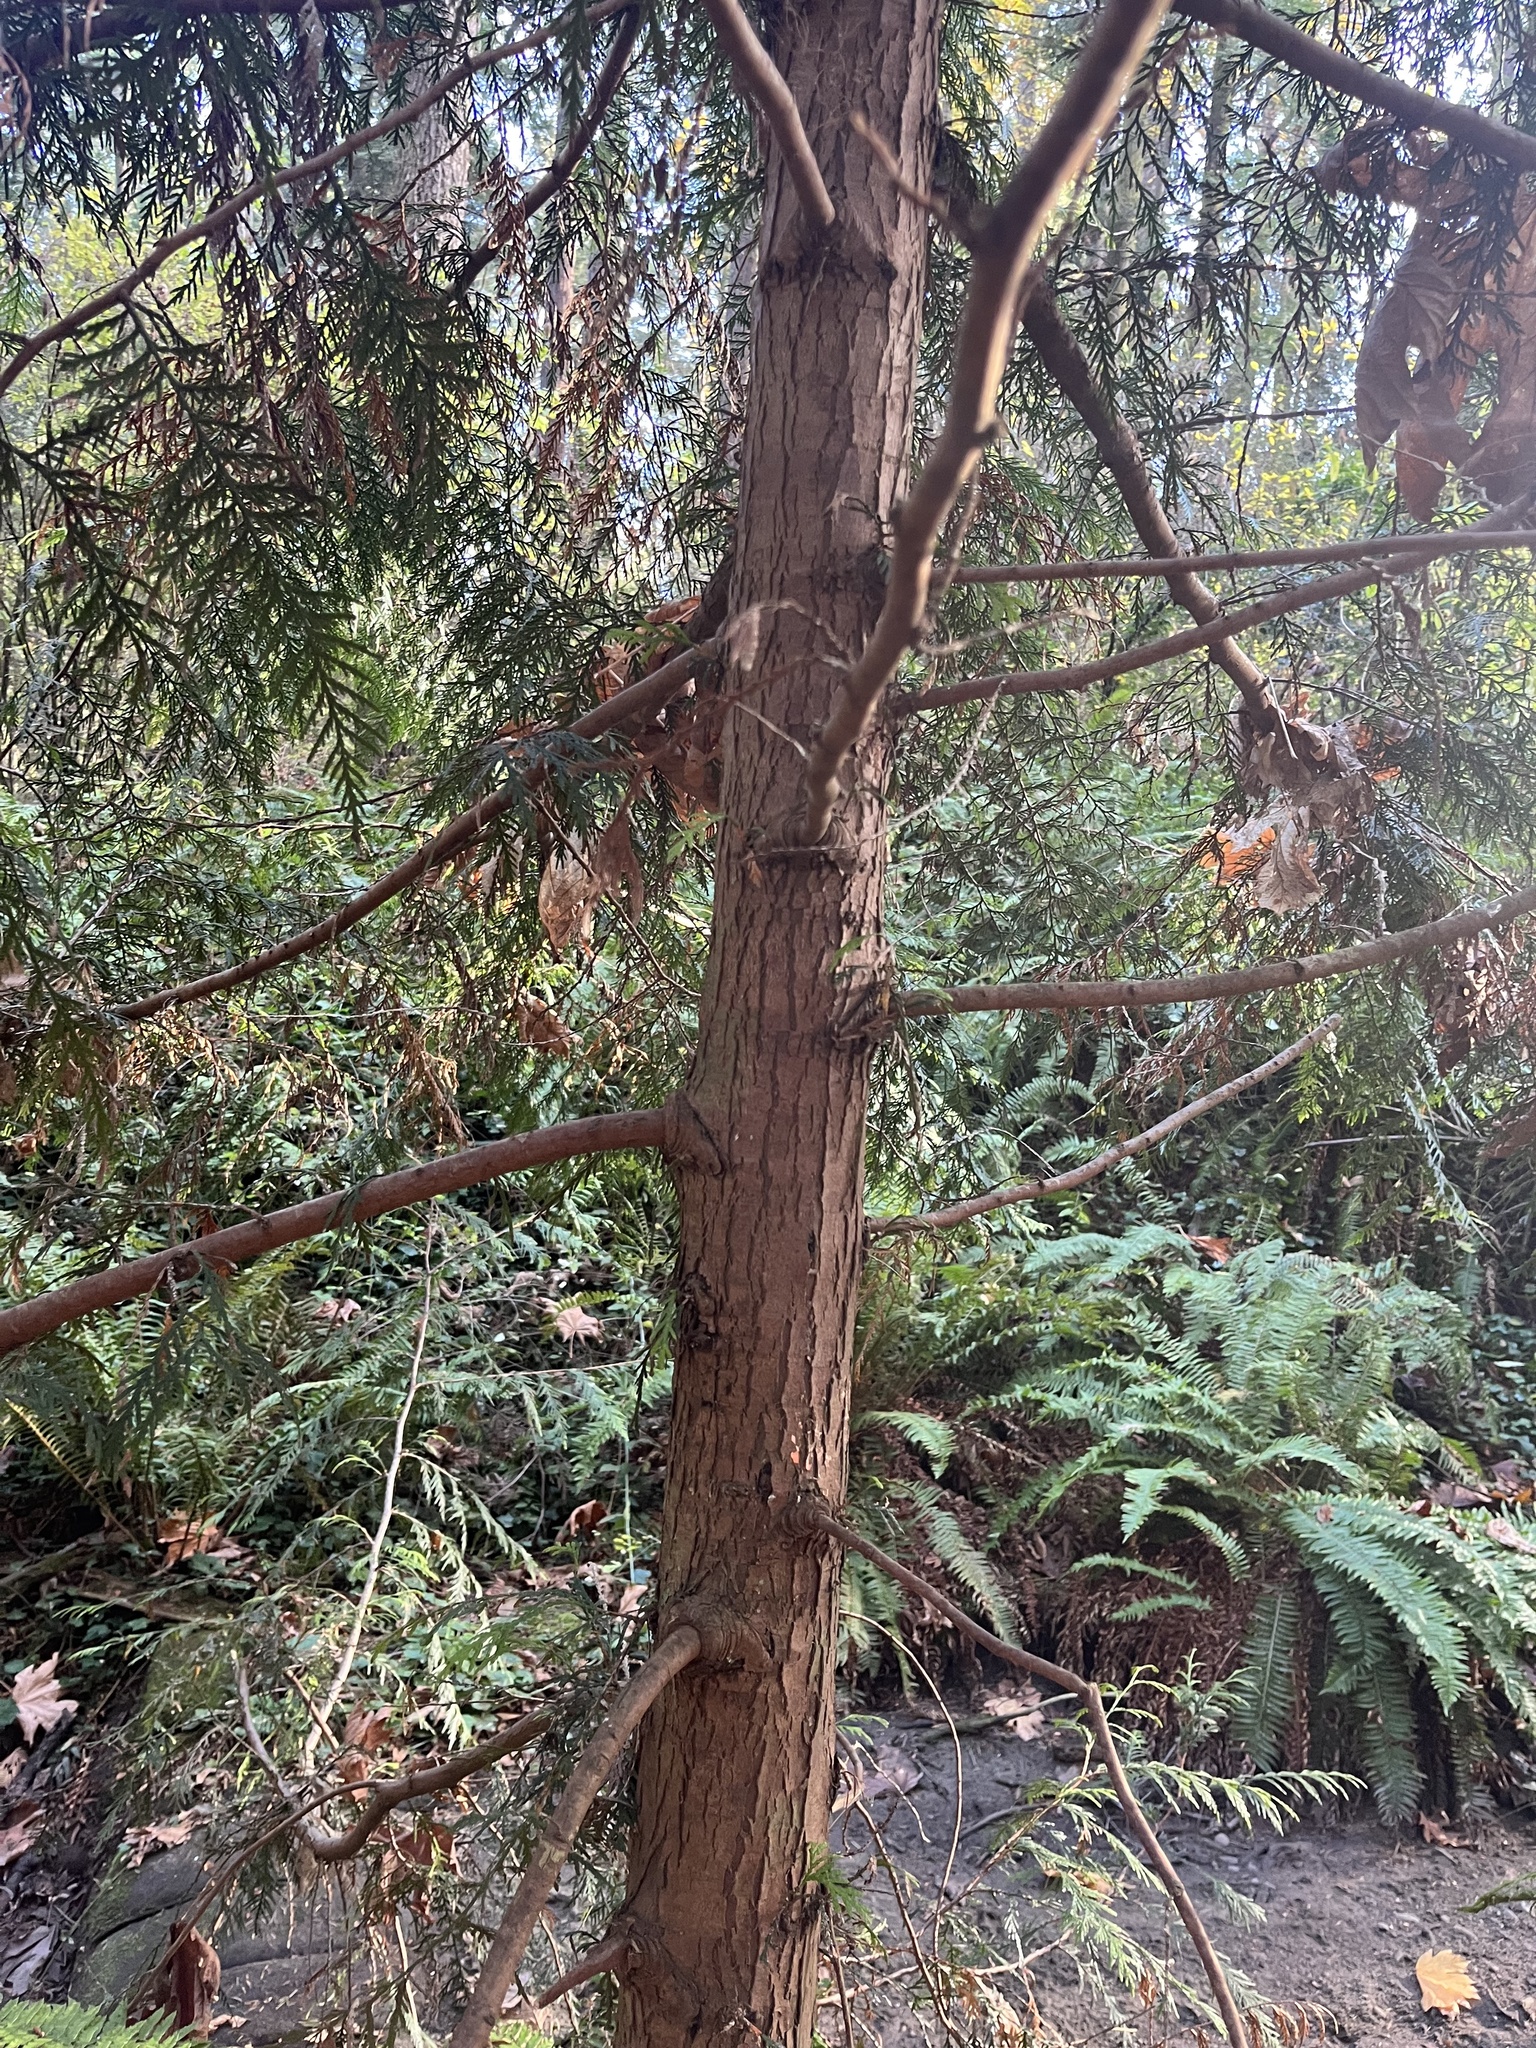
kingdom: Plantae
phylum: Tracheophyta
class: Pinopsida
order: Pinales
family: Cupressaceae
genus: Thuja
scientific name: Thuja plicata
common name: Western red-cedar
